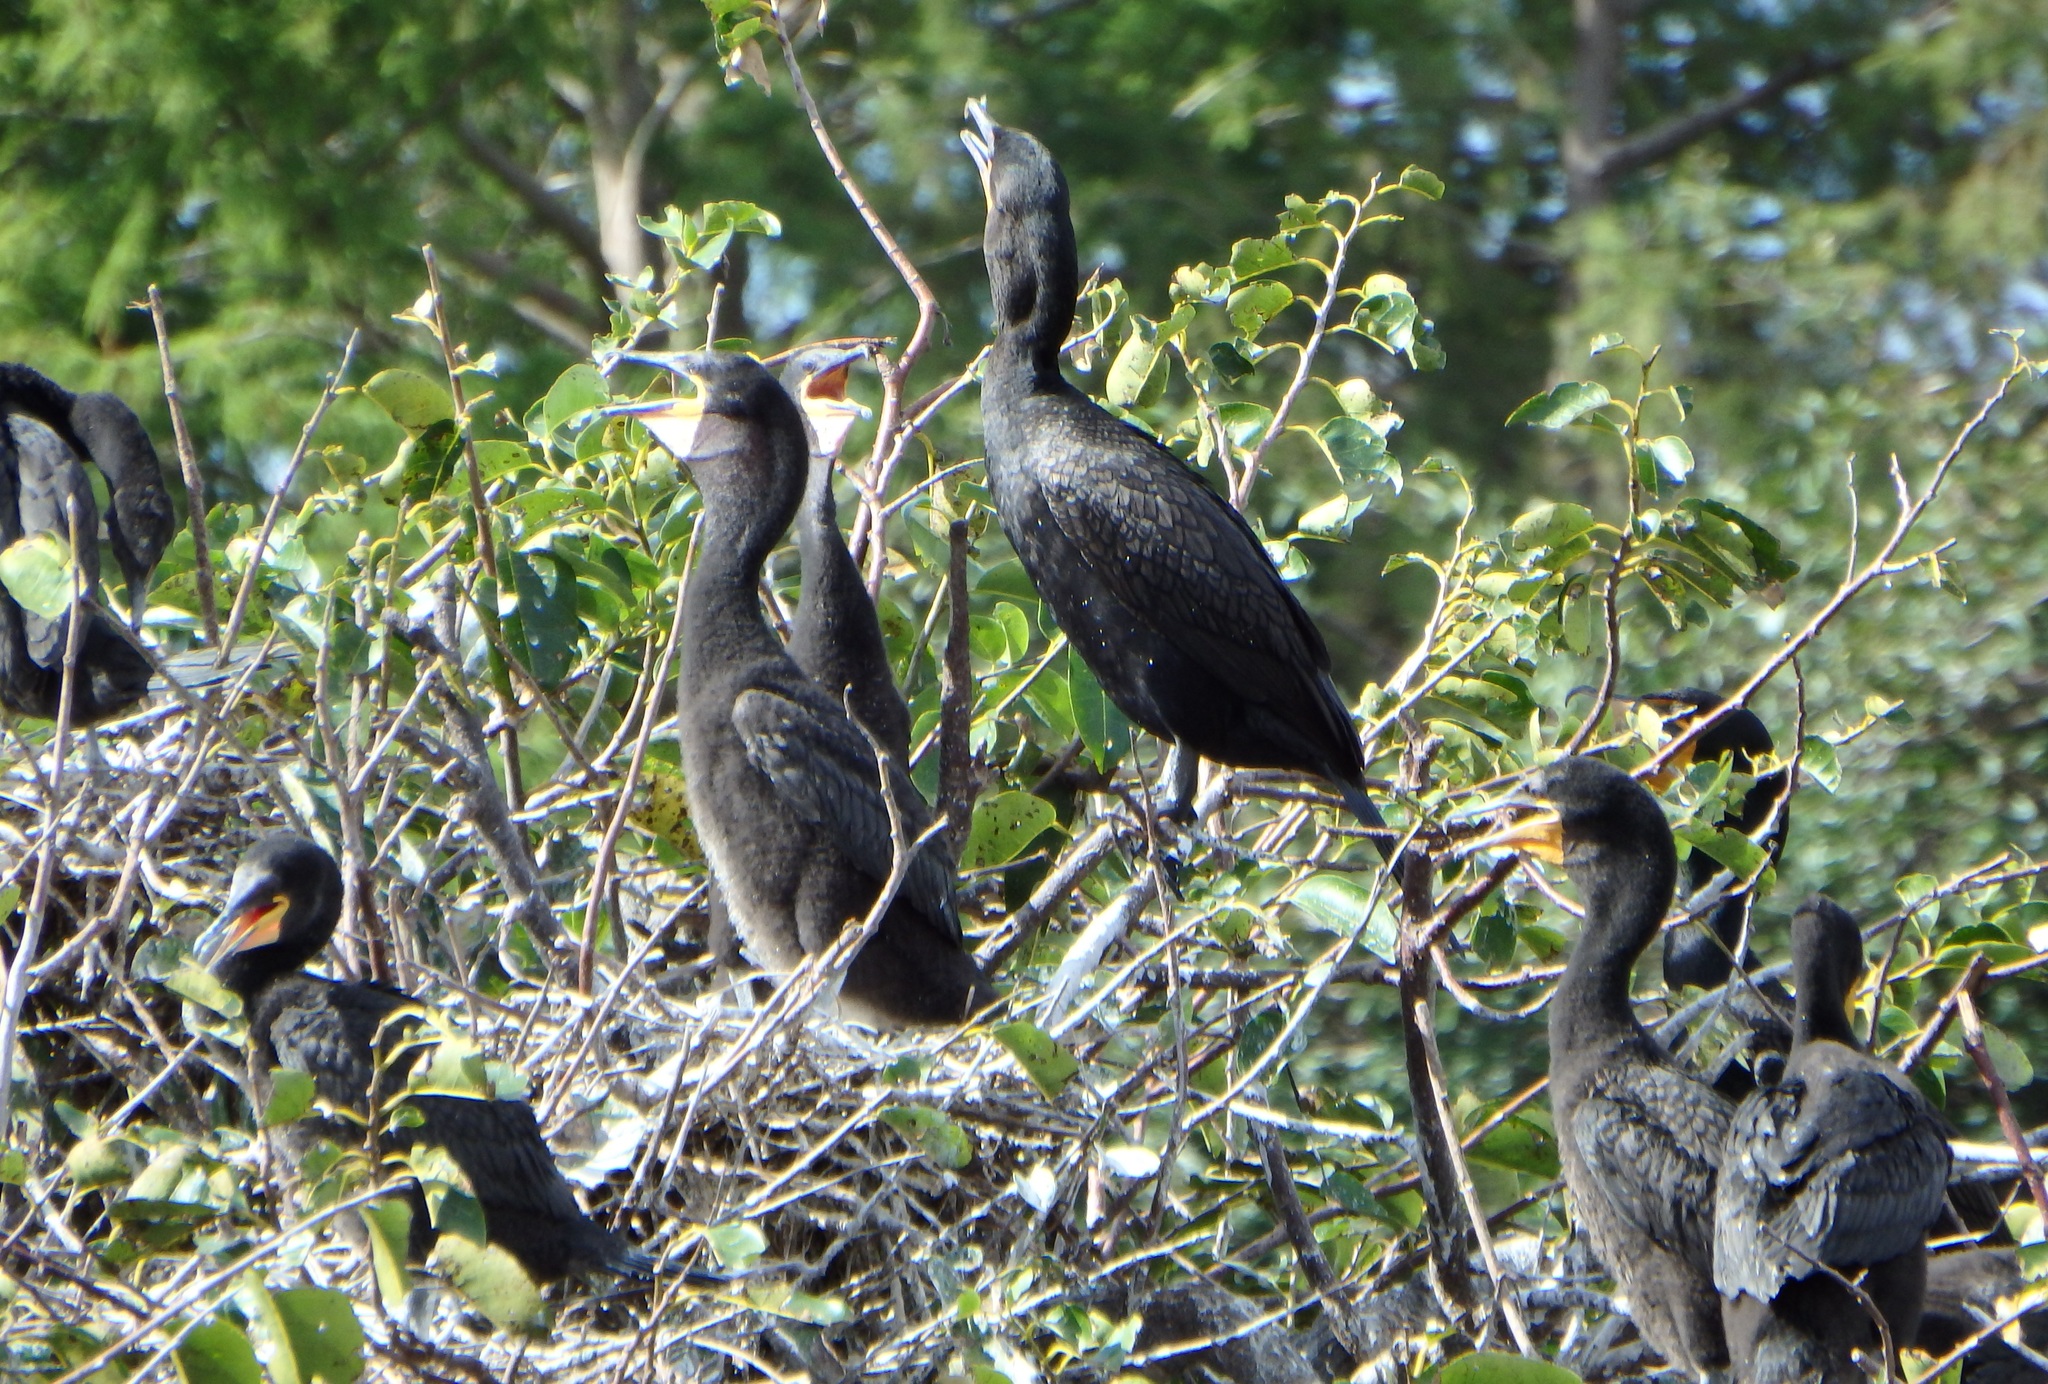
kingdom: Animalia
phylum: Chordata
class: Aves
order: Suliformes
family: Phalacrocoracidae
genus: Phalacrocorax
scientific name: Phalacrocorax auritus
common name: Double-crested cormorant
